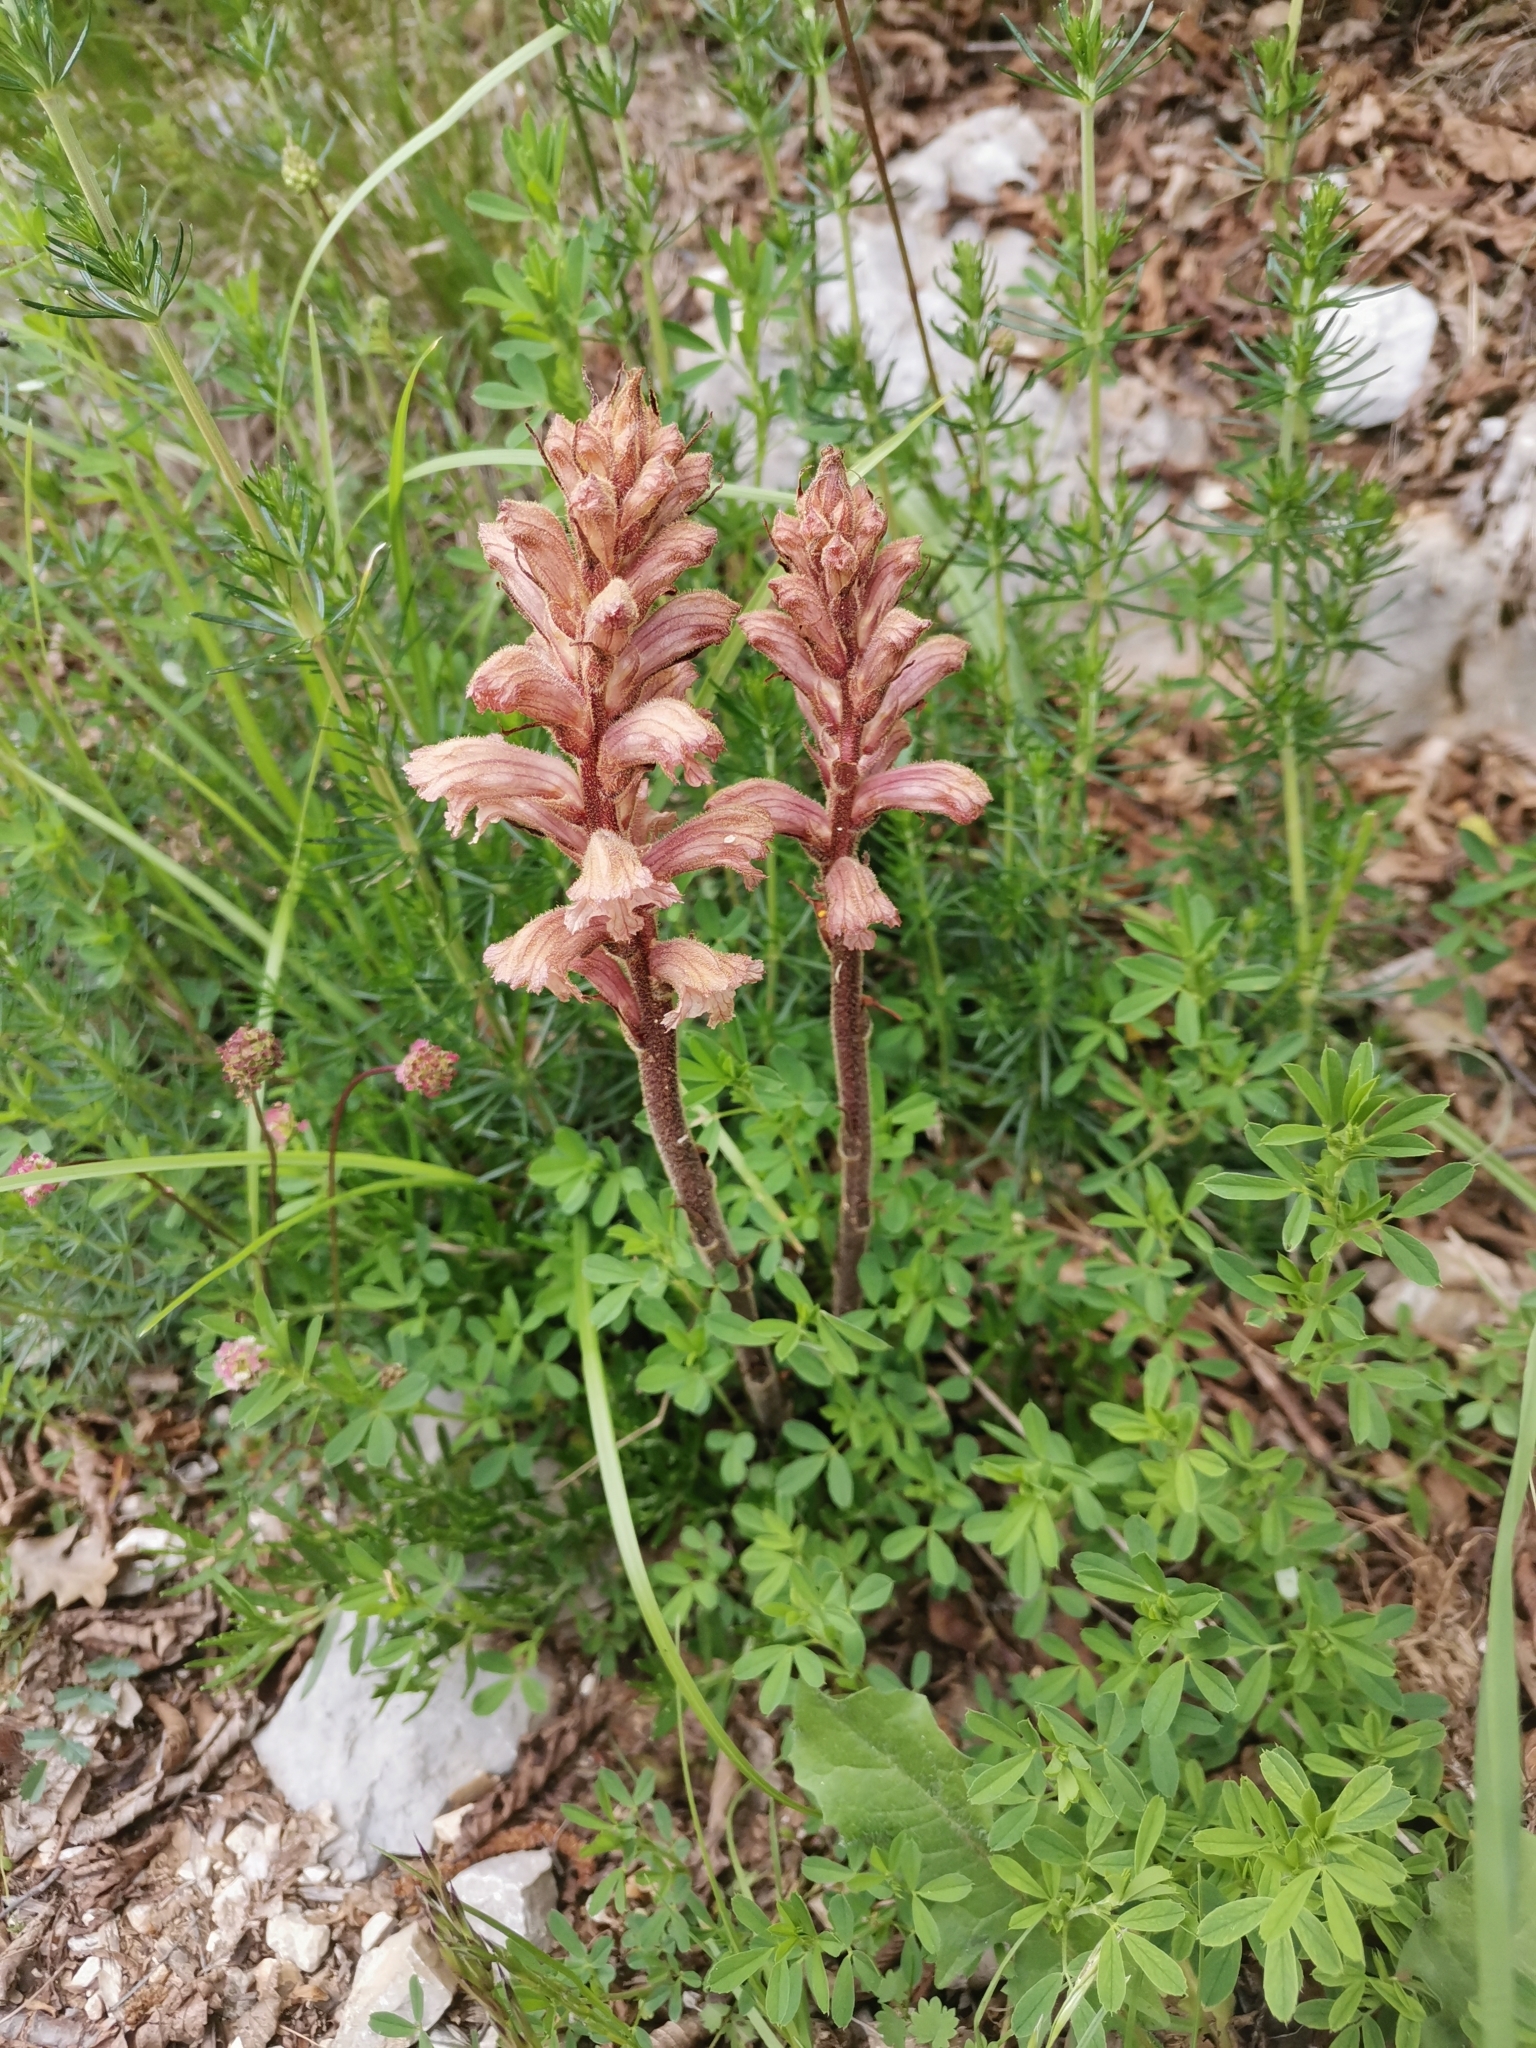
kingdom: Plantae
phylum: Tracheophyta
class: Magnoliopsida
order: Lamiales
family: Orobanchaceae
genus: Orobanche
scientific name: Orobanche lutea
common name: Yellow broomrape
